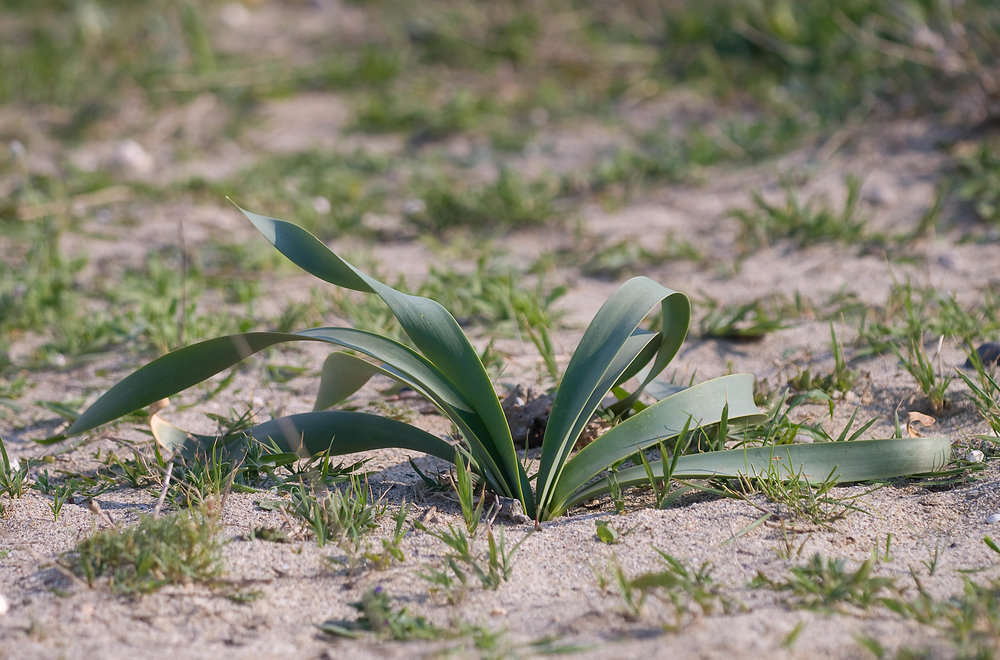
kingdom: Plantae
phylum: Tracheophyta
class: Liliopsida
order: Asparagales
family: Amaryllidaceae
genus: Pancratium
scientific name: Pancratium maritimum
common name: Sea-daffodil
